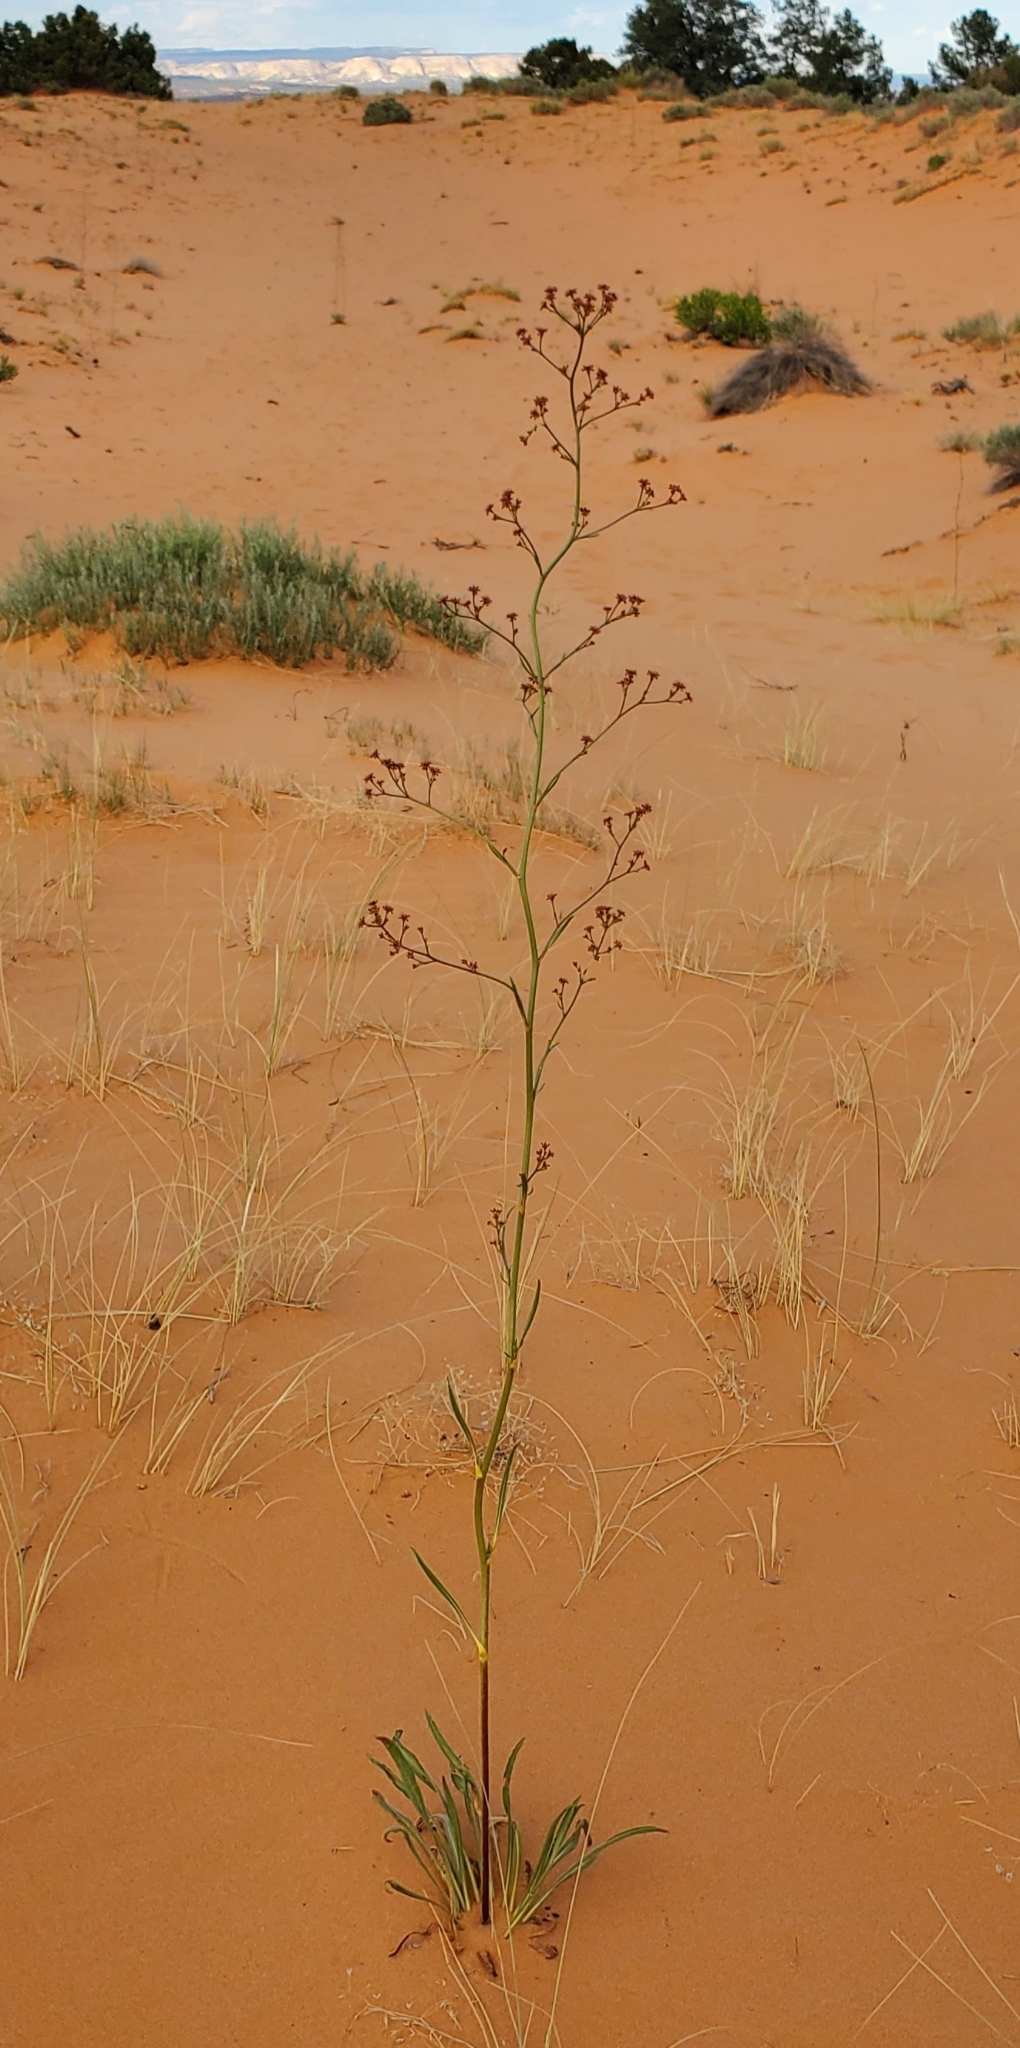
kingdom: Plantae
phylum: Tracheophyta
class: Magnoliopsida
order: Caryophyllales
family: Polygonaceae
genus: Eriogonum
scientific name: Eriogonum alatum
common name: Winged eriogonum
